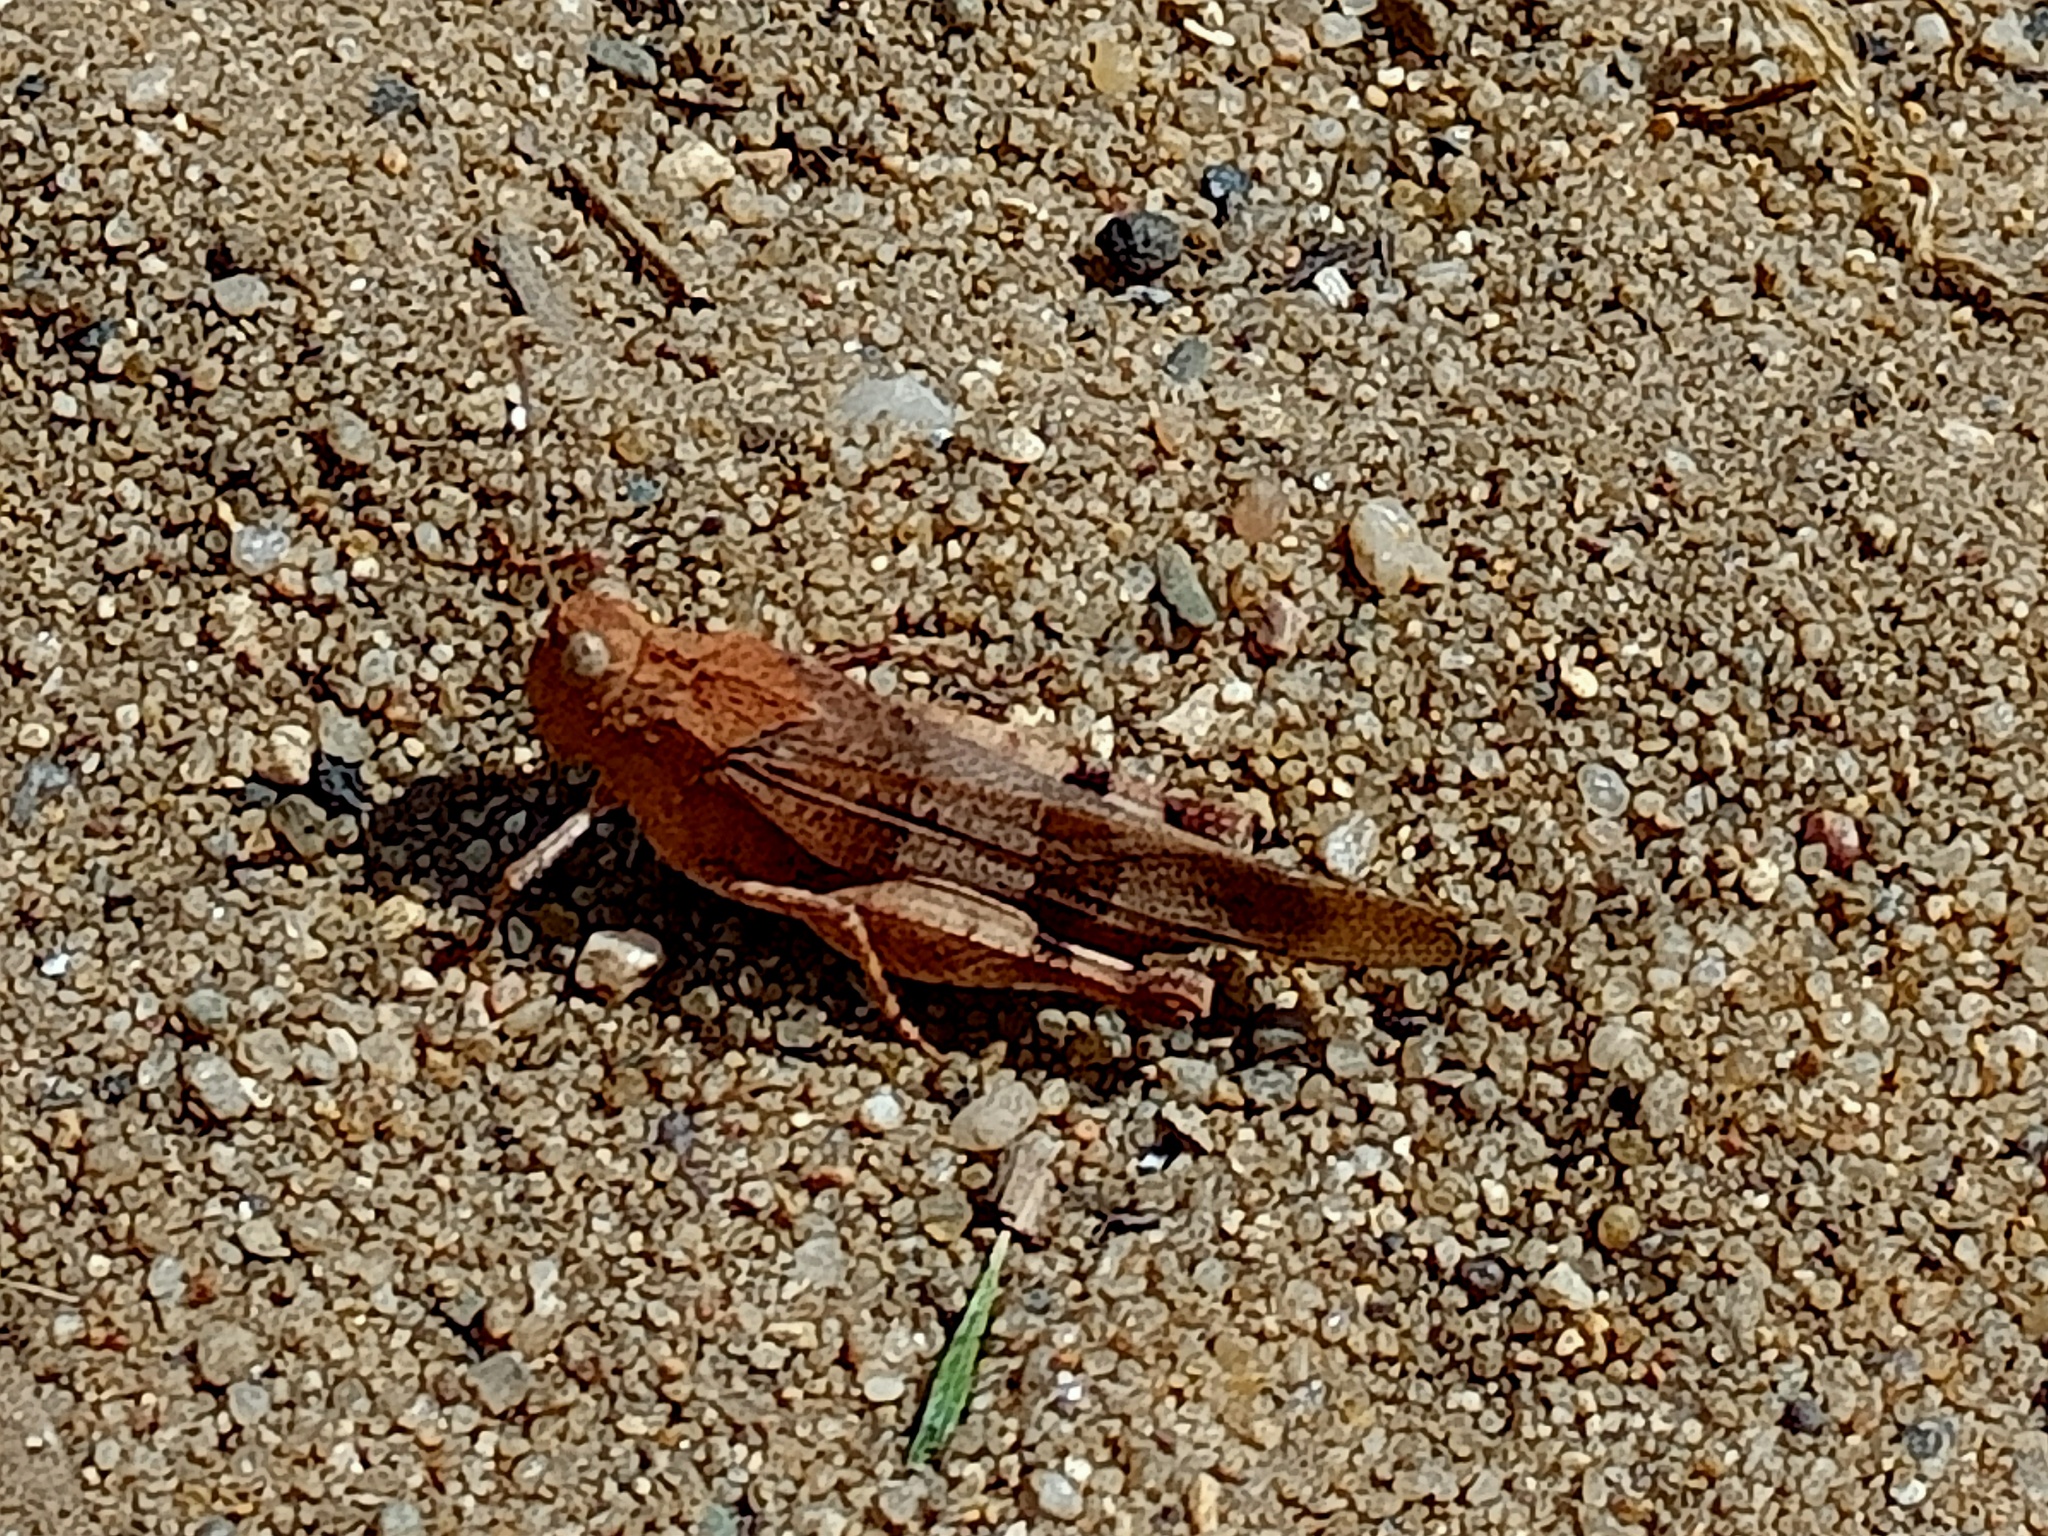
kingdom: Animalia
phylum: Arthropoda
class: Insecta
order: Orthoptera
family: Acrididae
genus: Oedipoda
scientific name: Oedipoda caerulescens
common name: Blue-winged grasshopper
